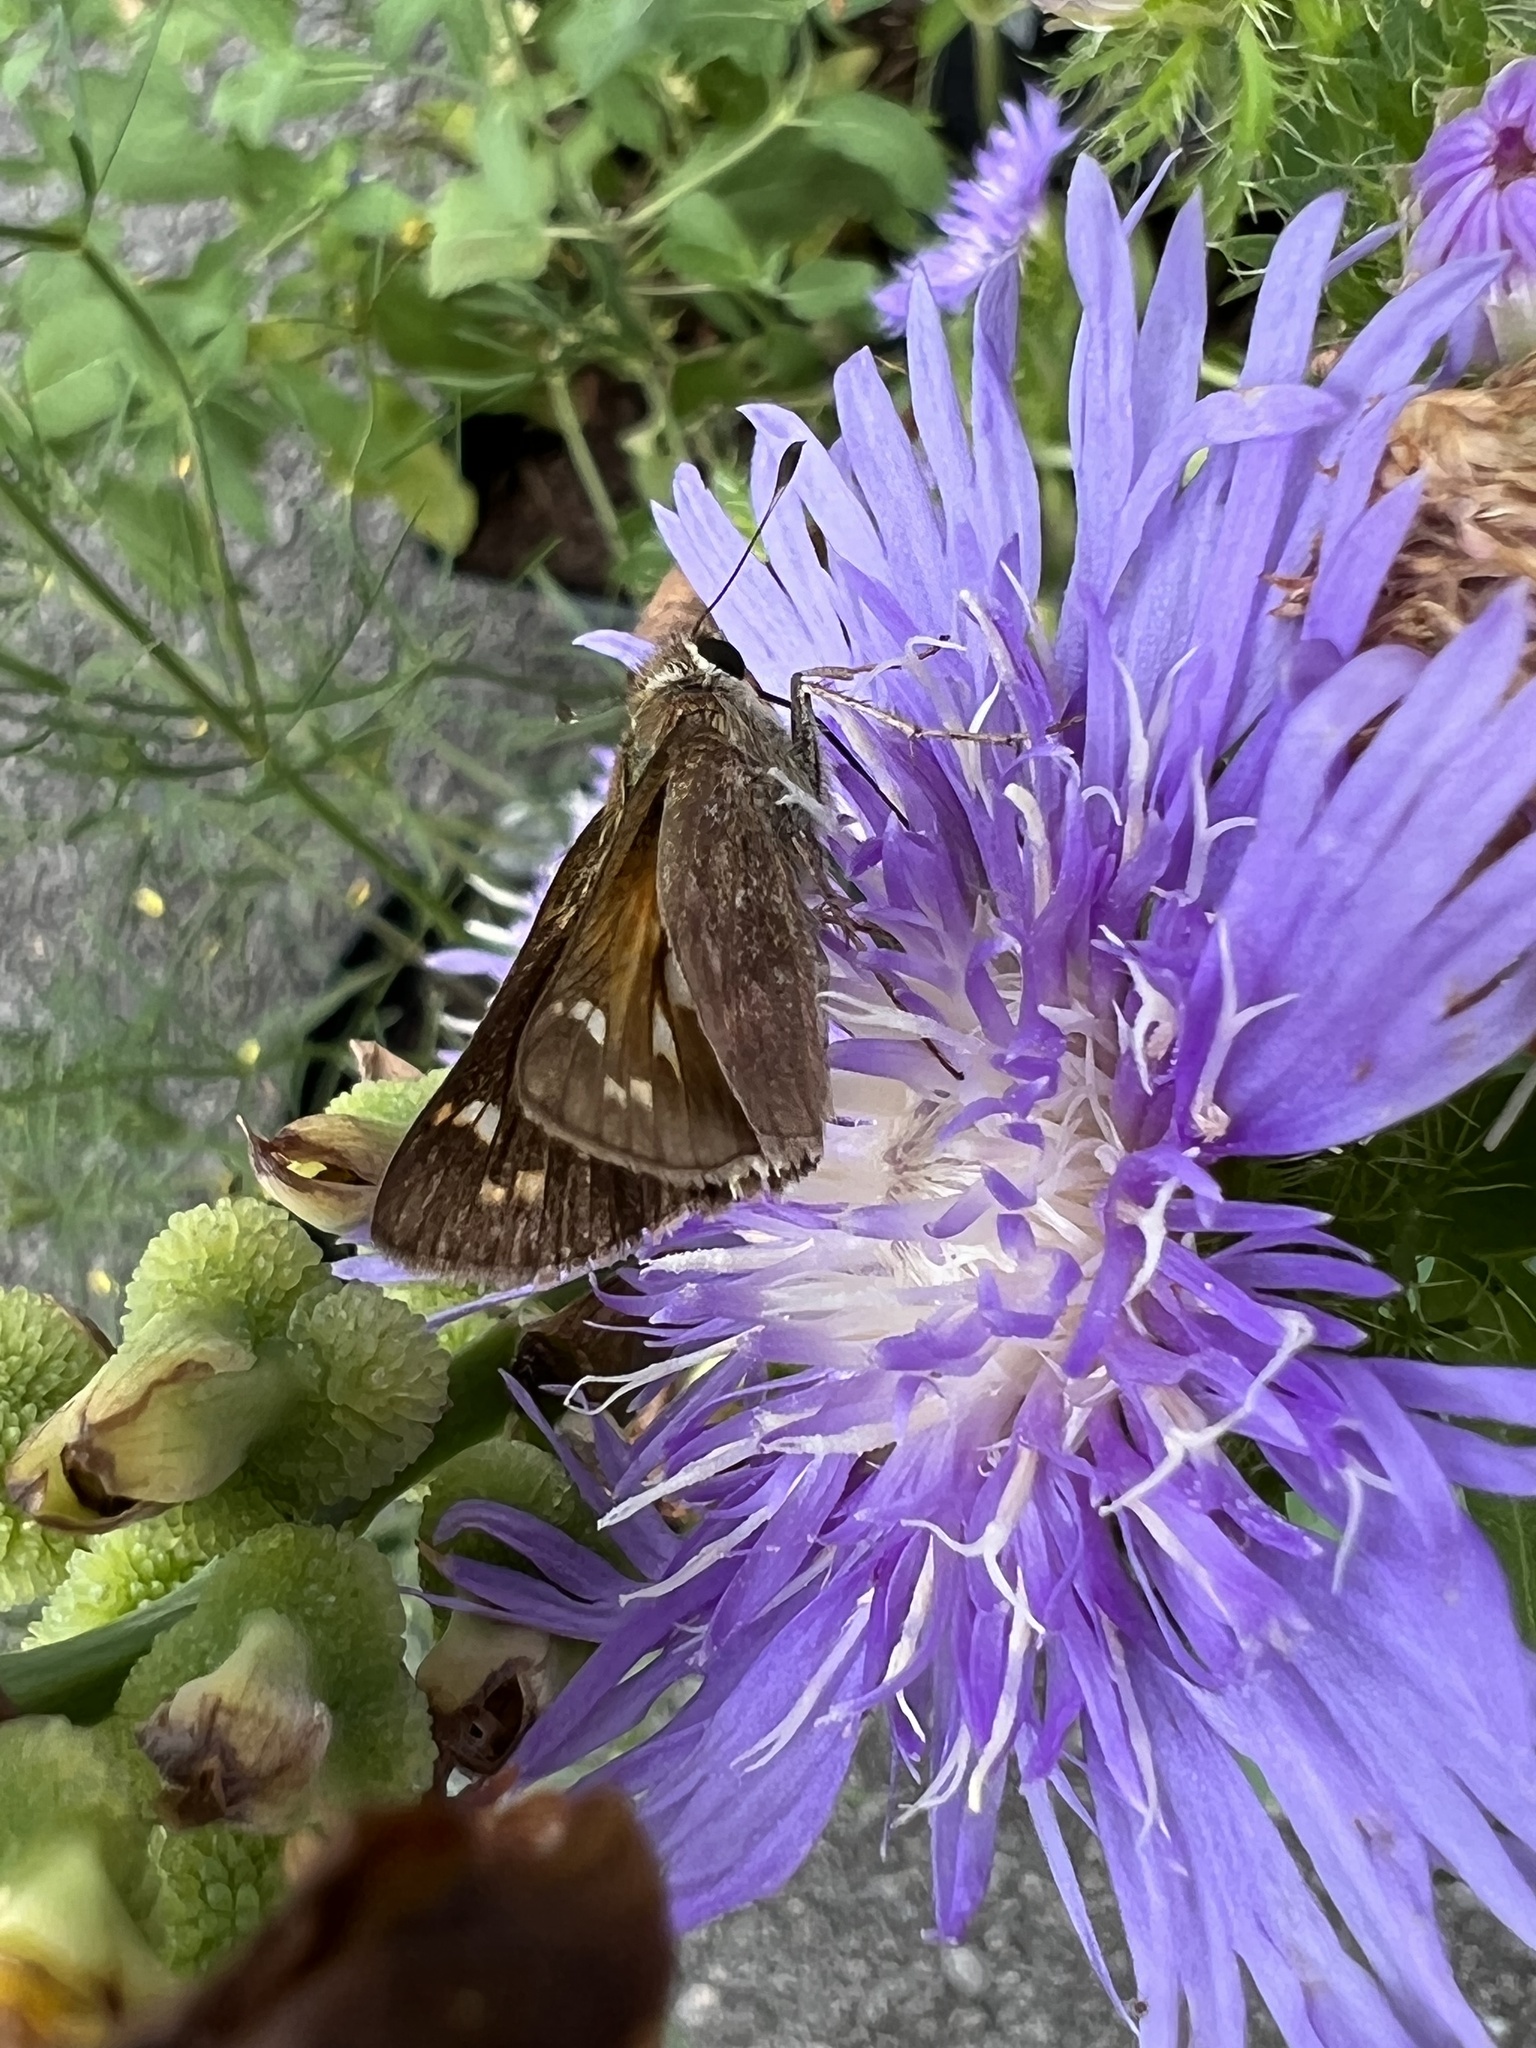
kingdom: Animalia
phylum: Arthropoda
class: Insecta
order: Lepidoptera
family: Hesperiidae
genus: Atalopedes
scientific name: Atalopedes
